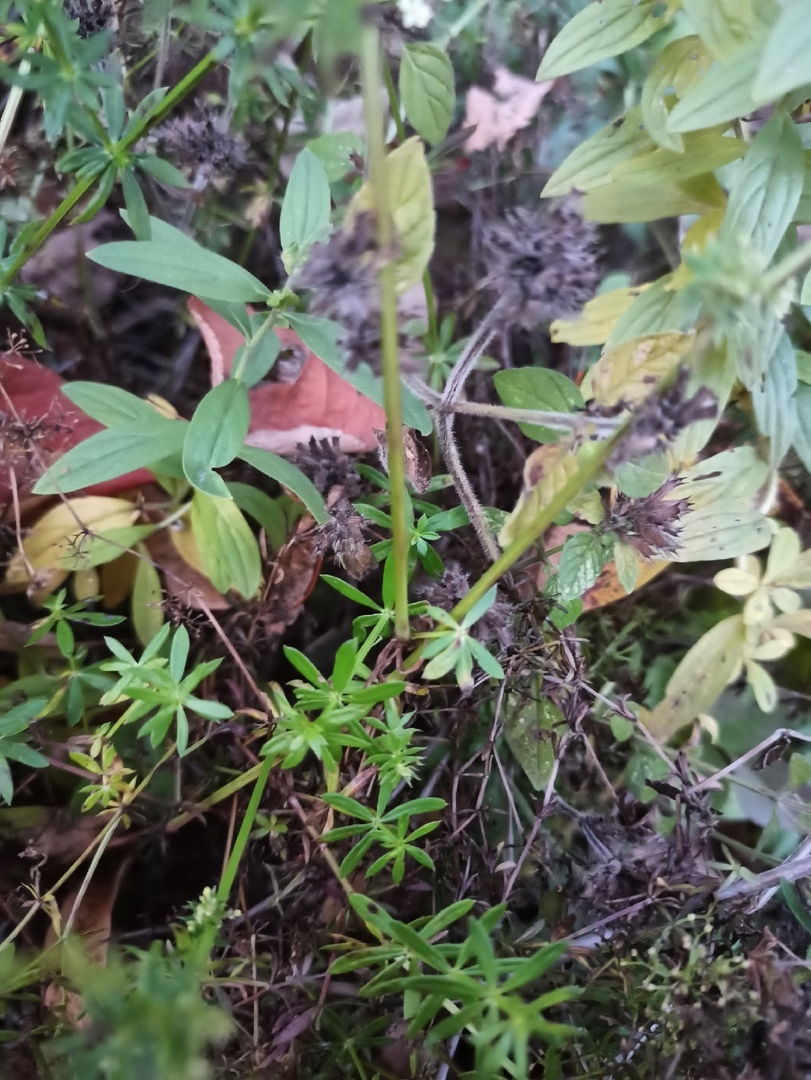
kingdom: Plantae
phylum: Tracheophyta
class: Magnoliopsida
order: Gentianales
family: Rubiaceae
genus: Galium
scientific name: Galium mollugo
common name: Hedge bedstraw
